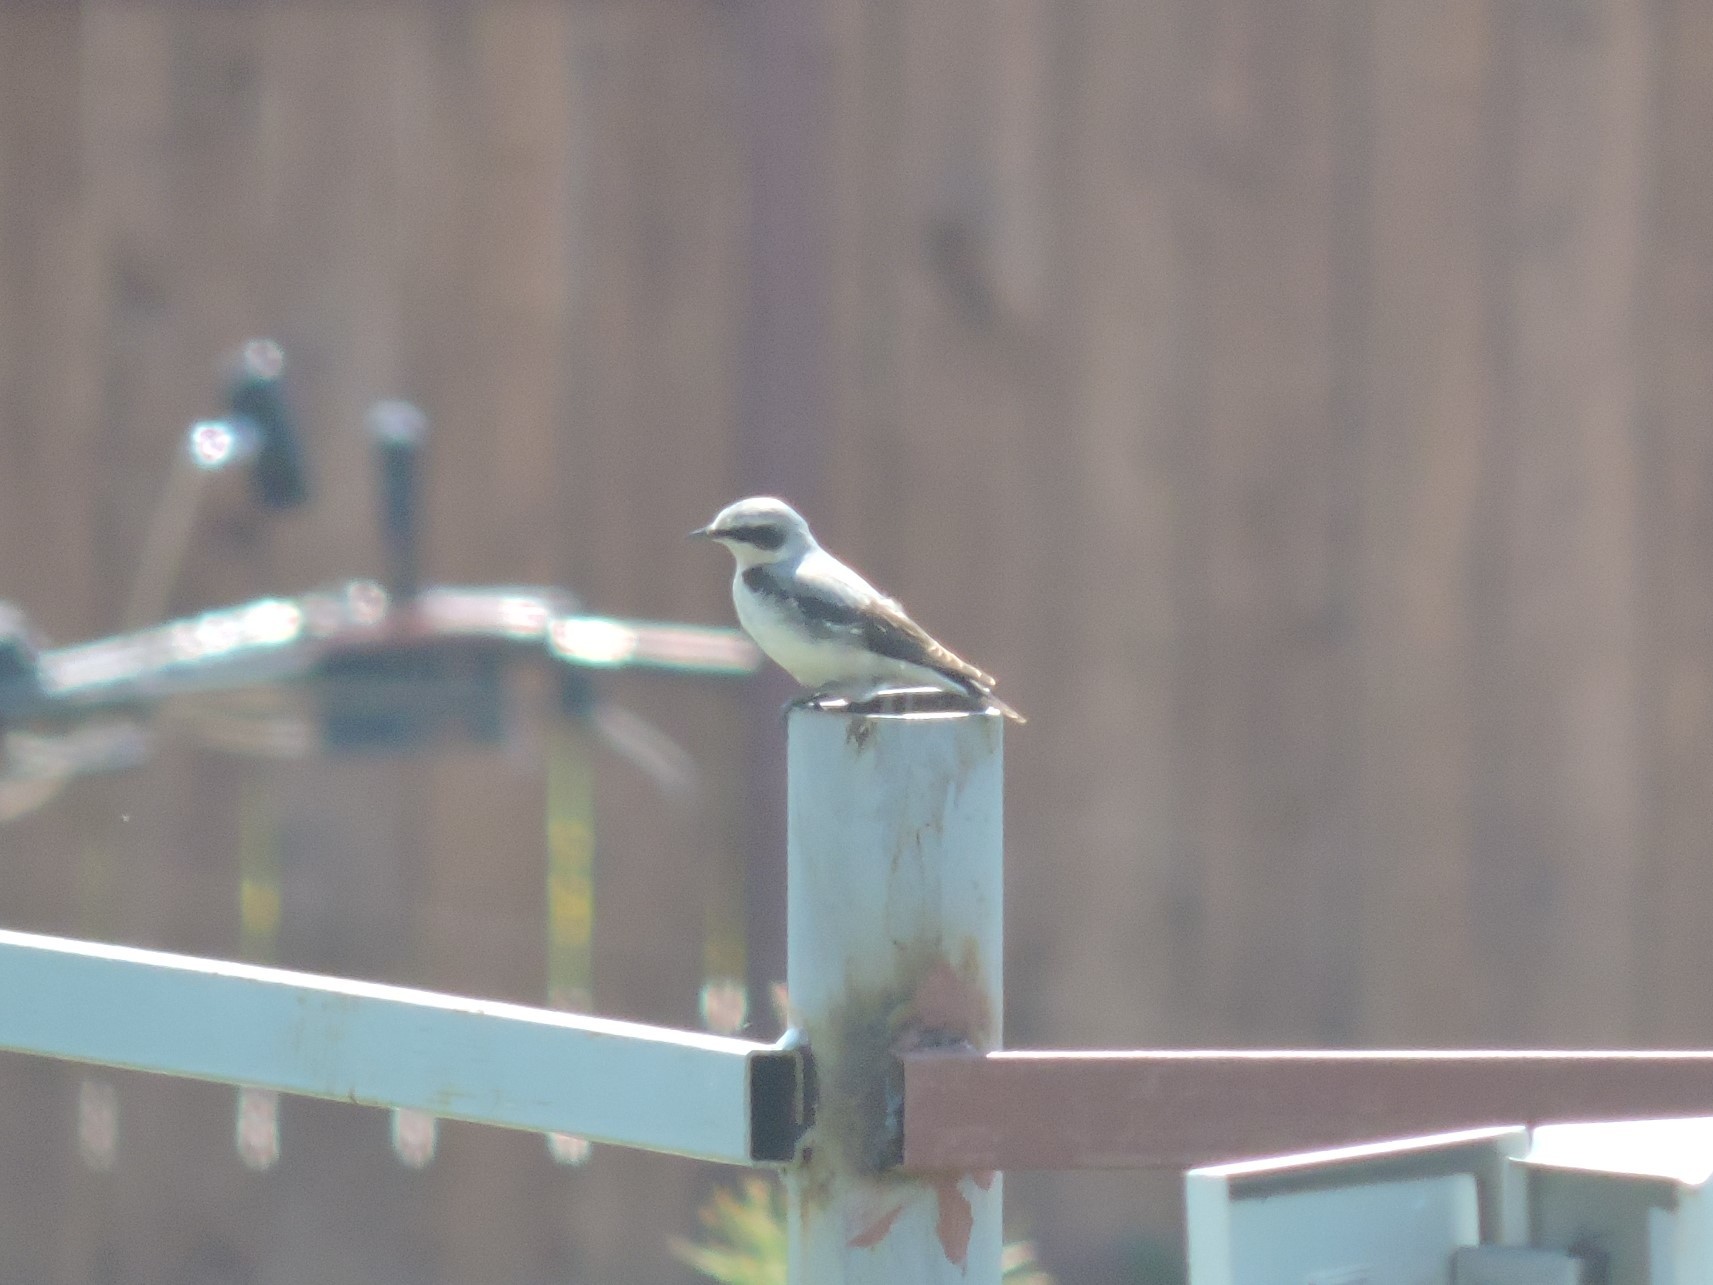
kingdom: Animalia
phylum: Chordata
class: Aves
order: Passeriformes
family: Muscicapidae
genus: Oenanthe
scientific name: Oenanthe oenanthe
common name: Northern wheatear
